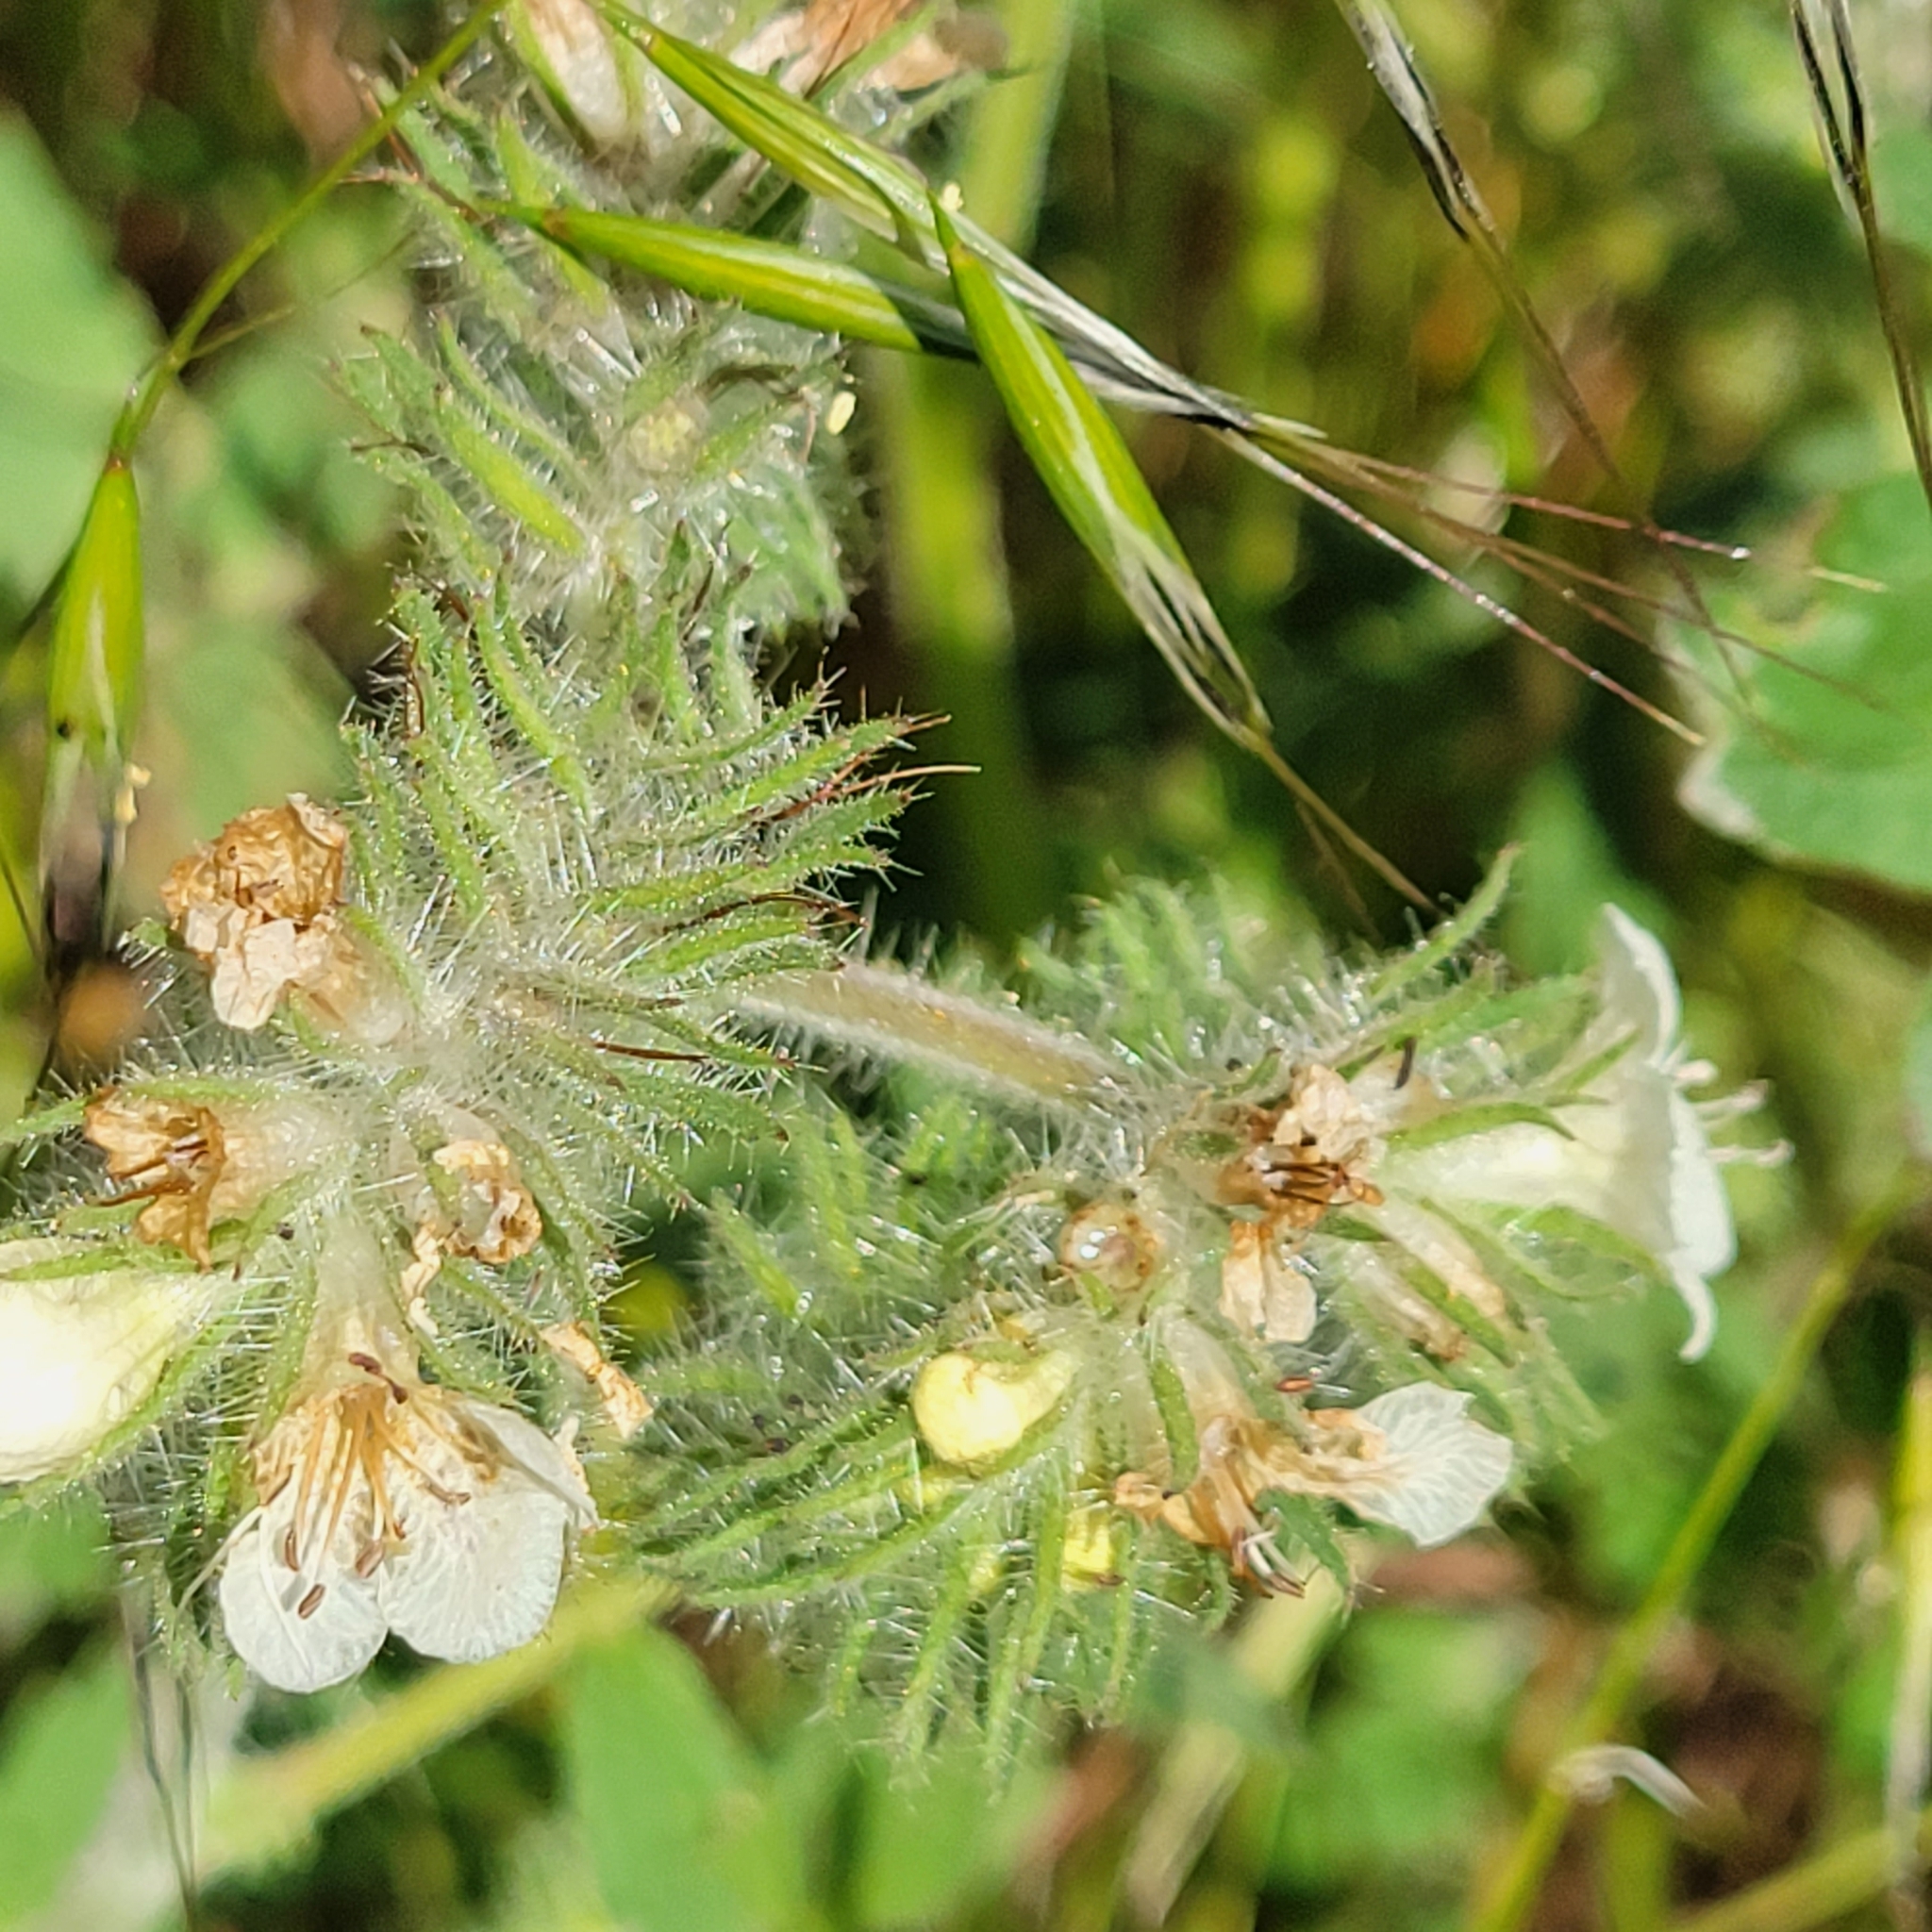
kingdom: Plantae
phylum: Tracheophyta
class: Magnoliopsida
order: Boraginales
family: Hydrophyllaceae
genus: Phacelia
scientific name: Phacelia cicutaria
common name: Caterpillar phacelia
